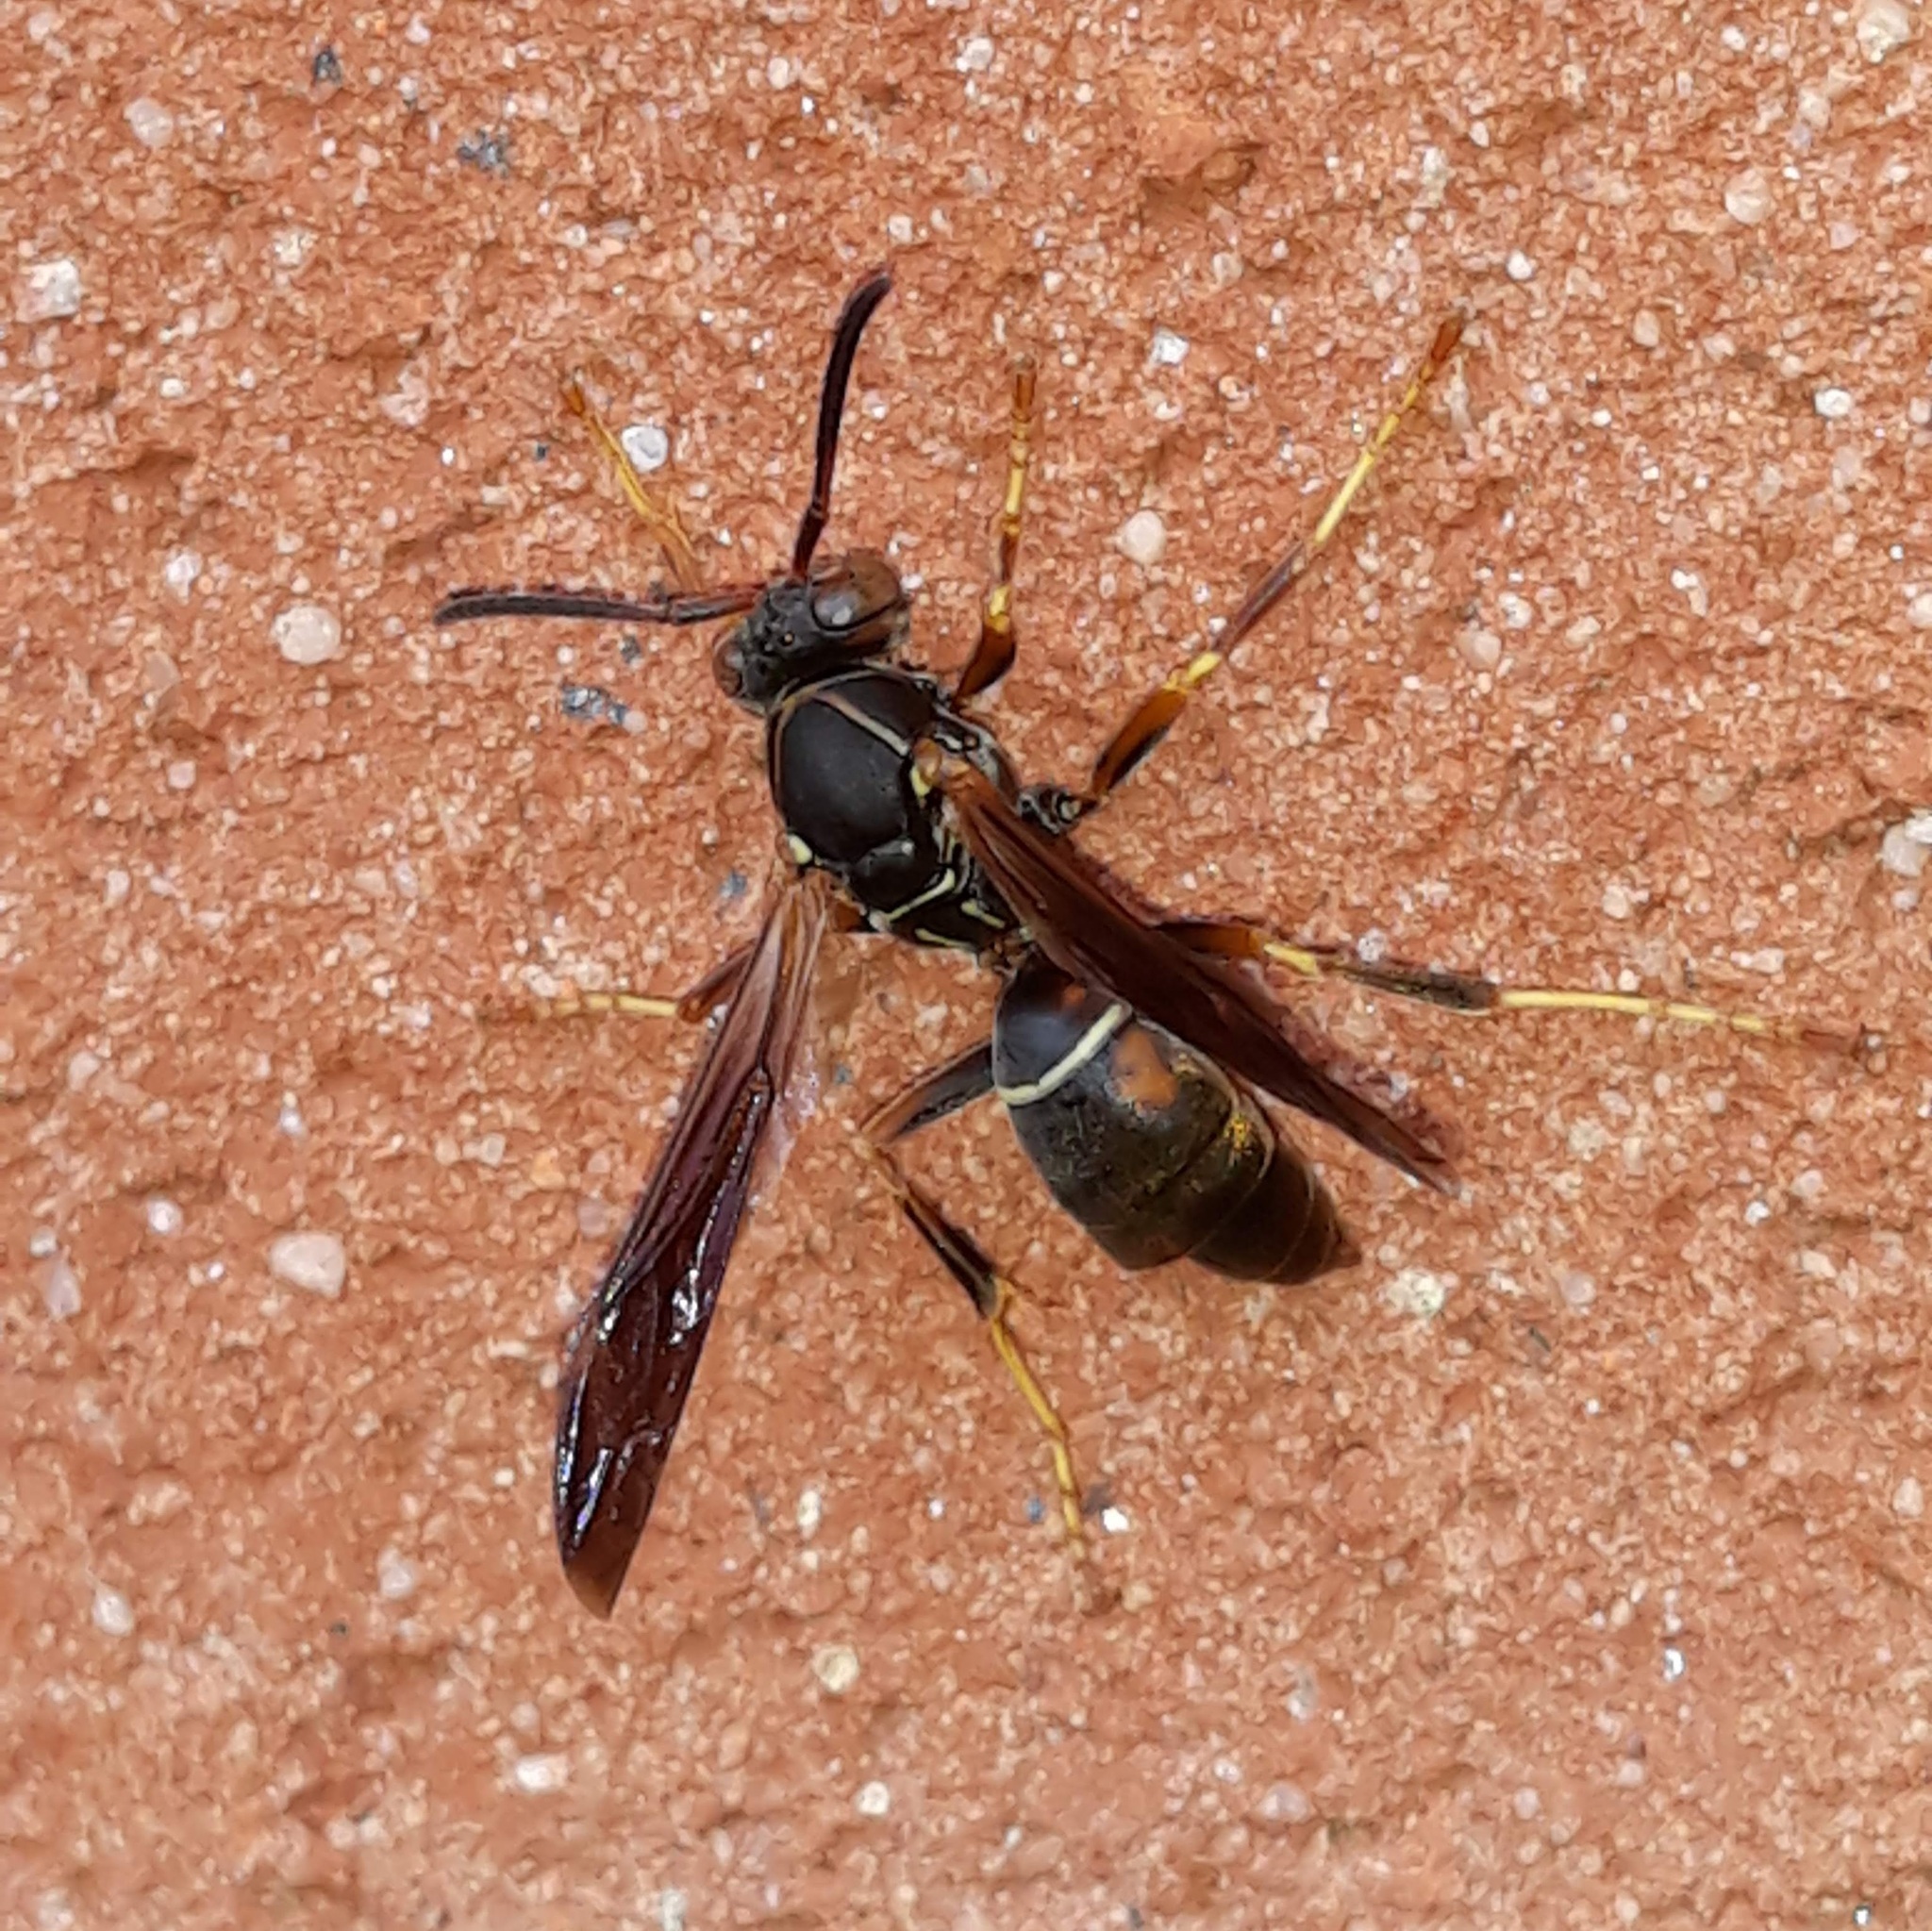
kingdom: Animalia
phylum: Arthropoda
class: Insecta
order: Strepsiptera
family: Xenidae
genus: Xenos
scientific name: Xenos pecki
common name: Twisted wing parasite
